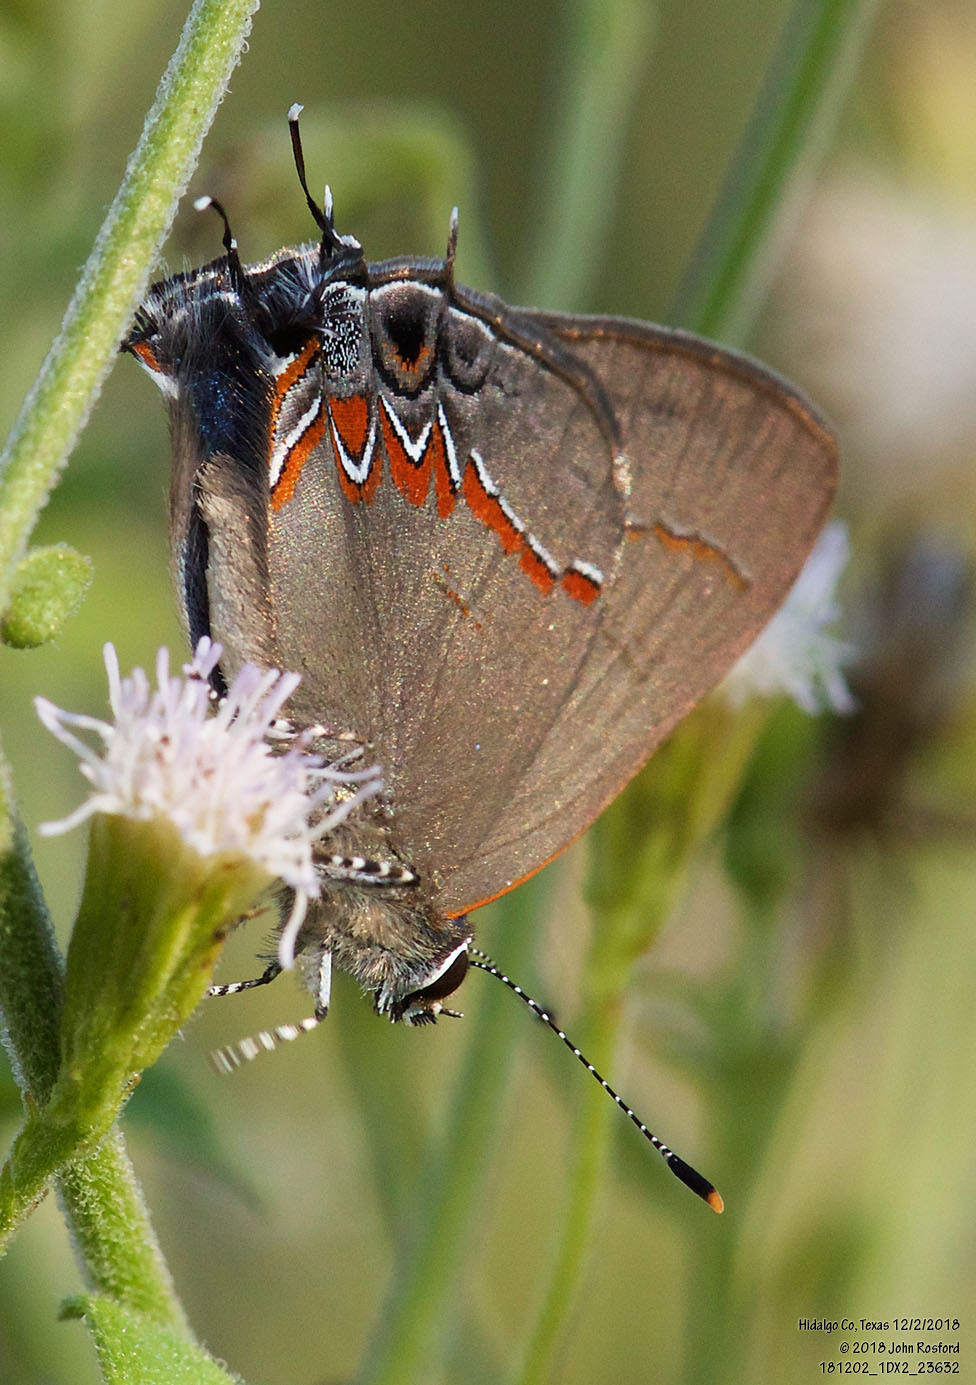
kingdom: Animalia
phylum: Arthropoda
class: Insecta
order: Lepidoptera
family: Lycaenidae
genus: Calycopis
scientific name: Calycopis isobeon
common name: Dusky-blue groundstreak
